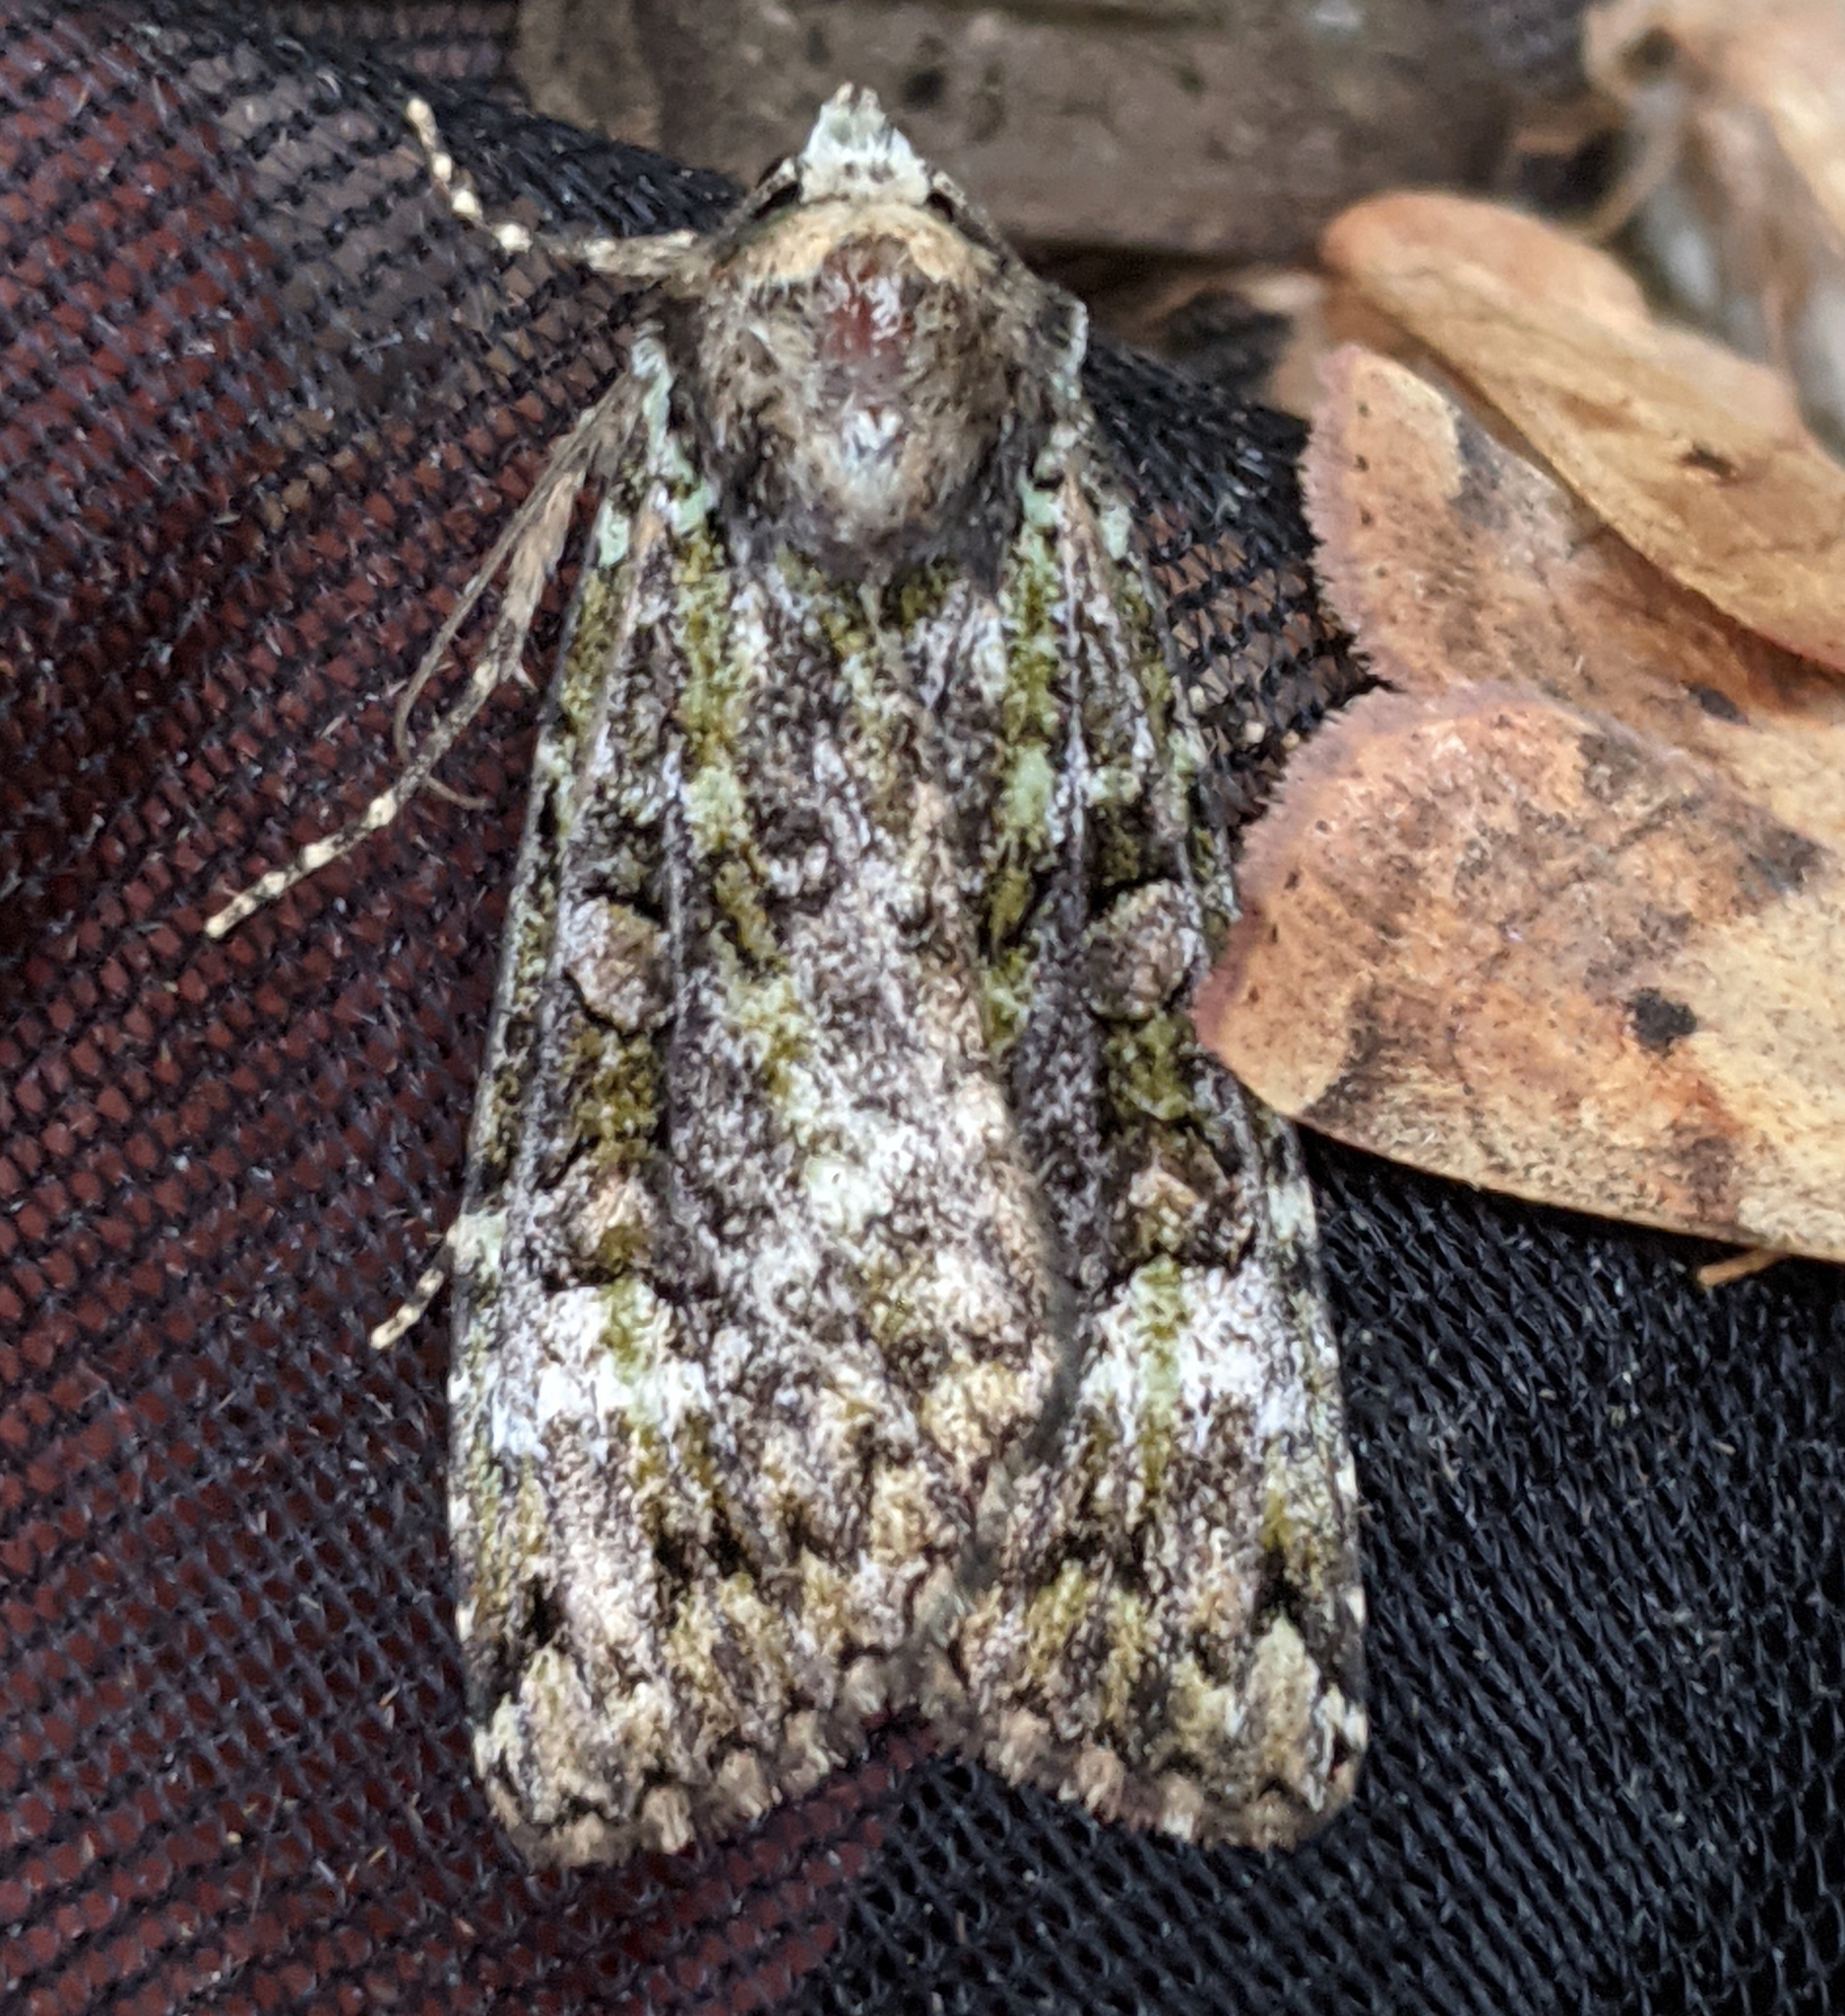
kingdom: Animalia
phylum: Arthropoda
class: Insecta
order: Lepidoptera
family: Noctuidae
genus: Anaplectoides
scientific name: Anaplectoides prasina
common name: Green arches
